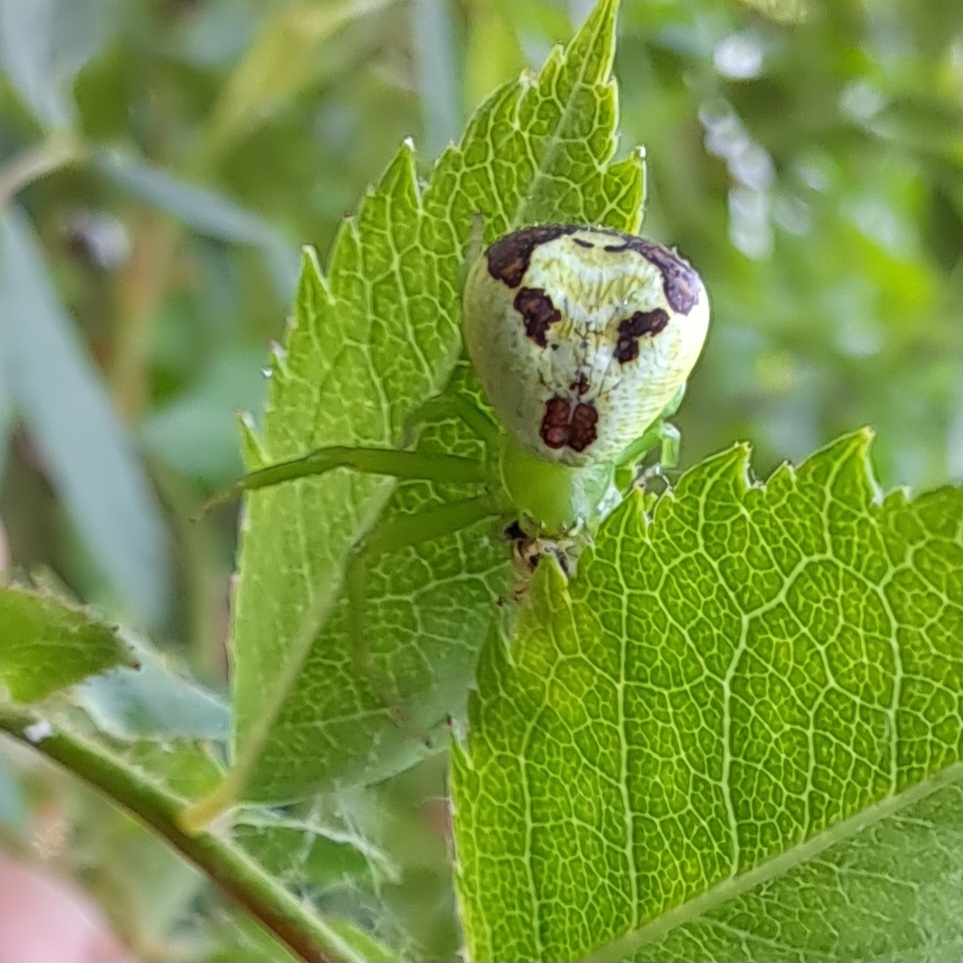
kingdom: Animalia
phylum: Arthropoda
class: Arachnida
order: Araneae
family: Thomisidae
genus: Ebrechtella
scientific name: Ebrechtella tricuspidata
